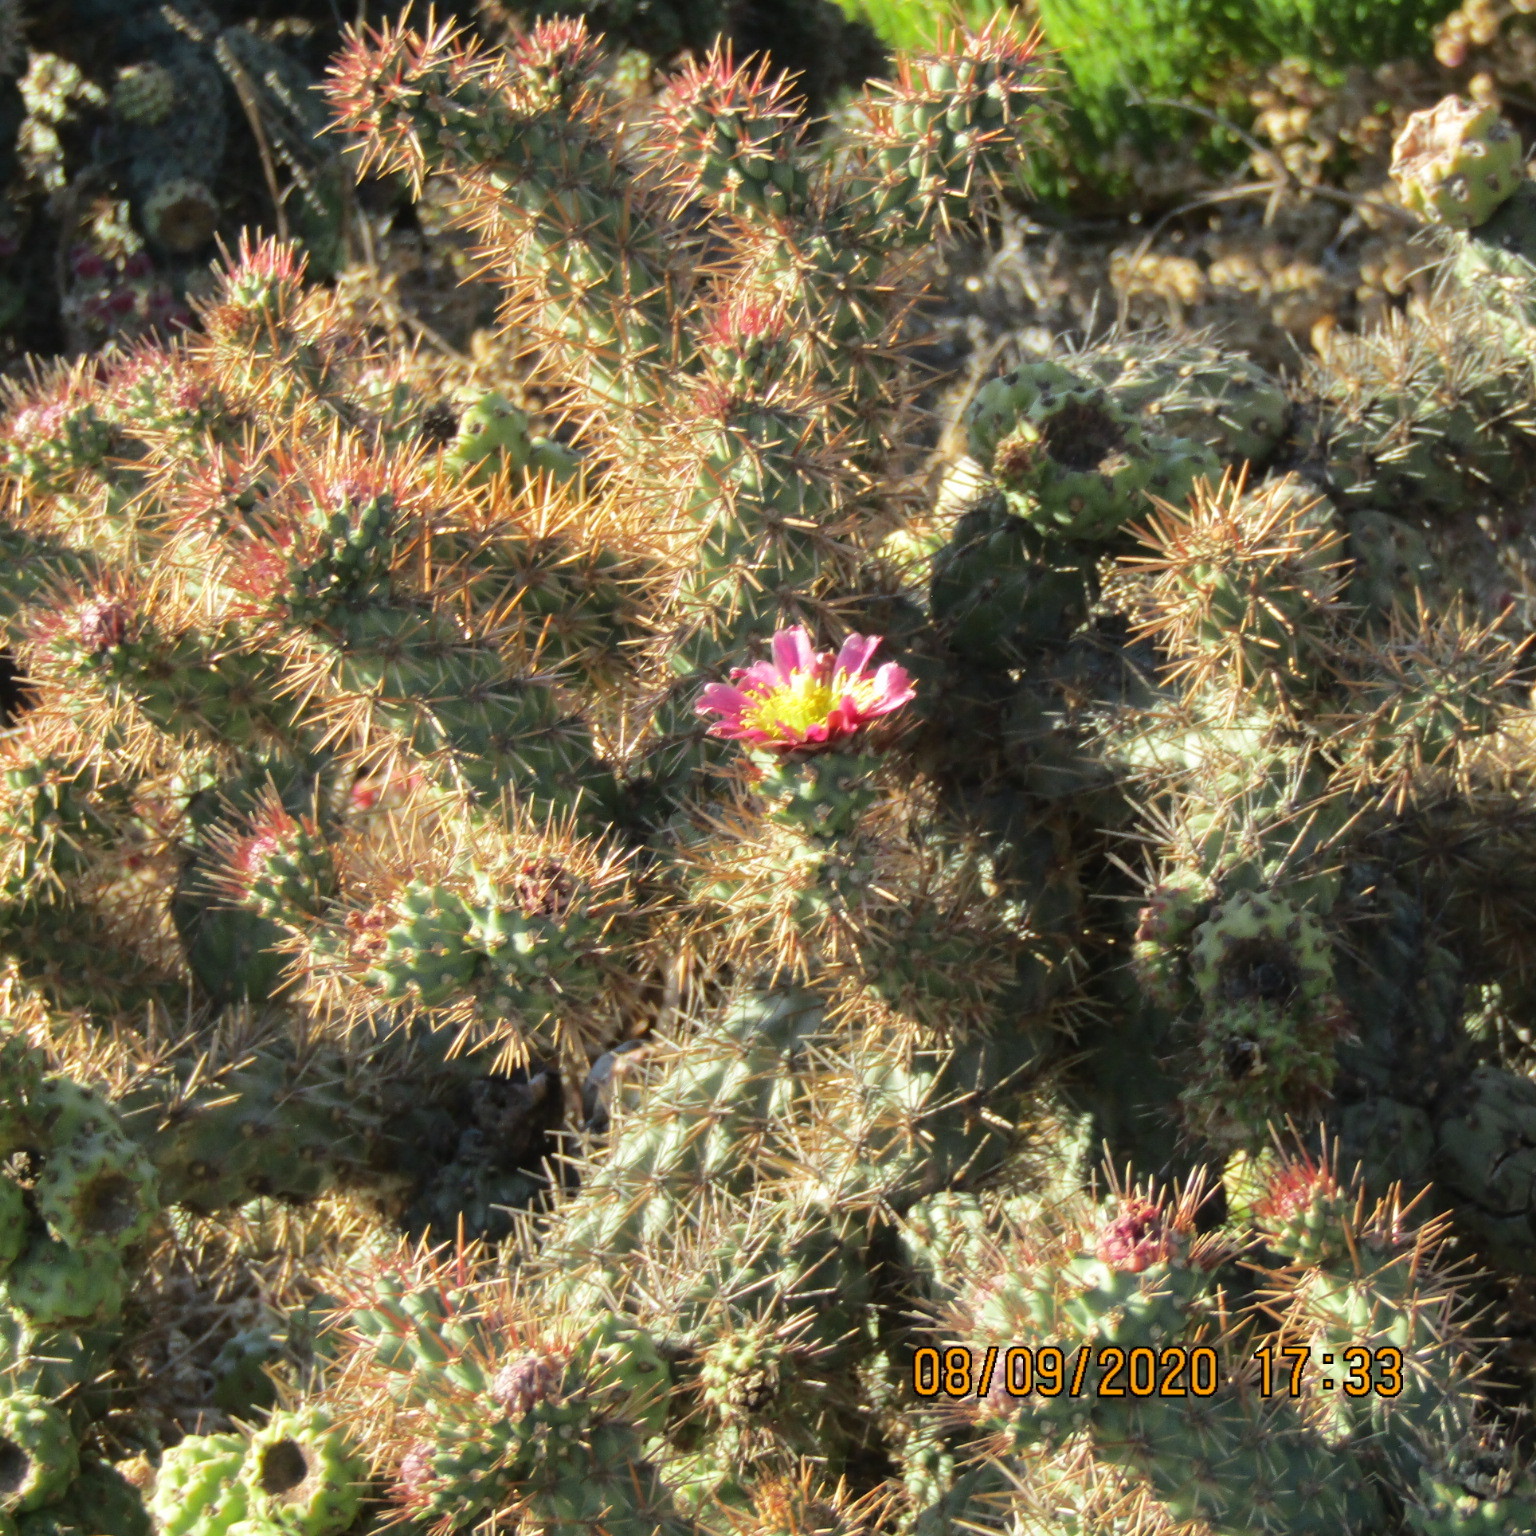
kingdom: Plantae
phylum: Tracheophyta
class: Magnoliopsida
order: Caryophyllales
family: Cactaceae
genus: Cylindropuntia
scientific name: Cylindropuntia prolifera
